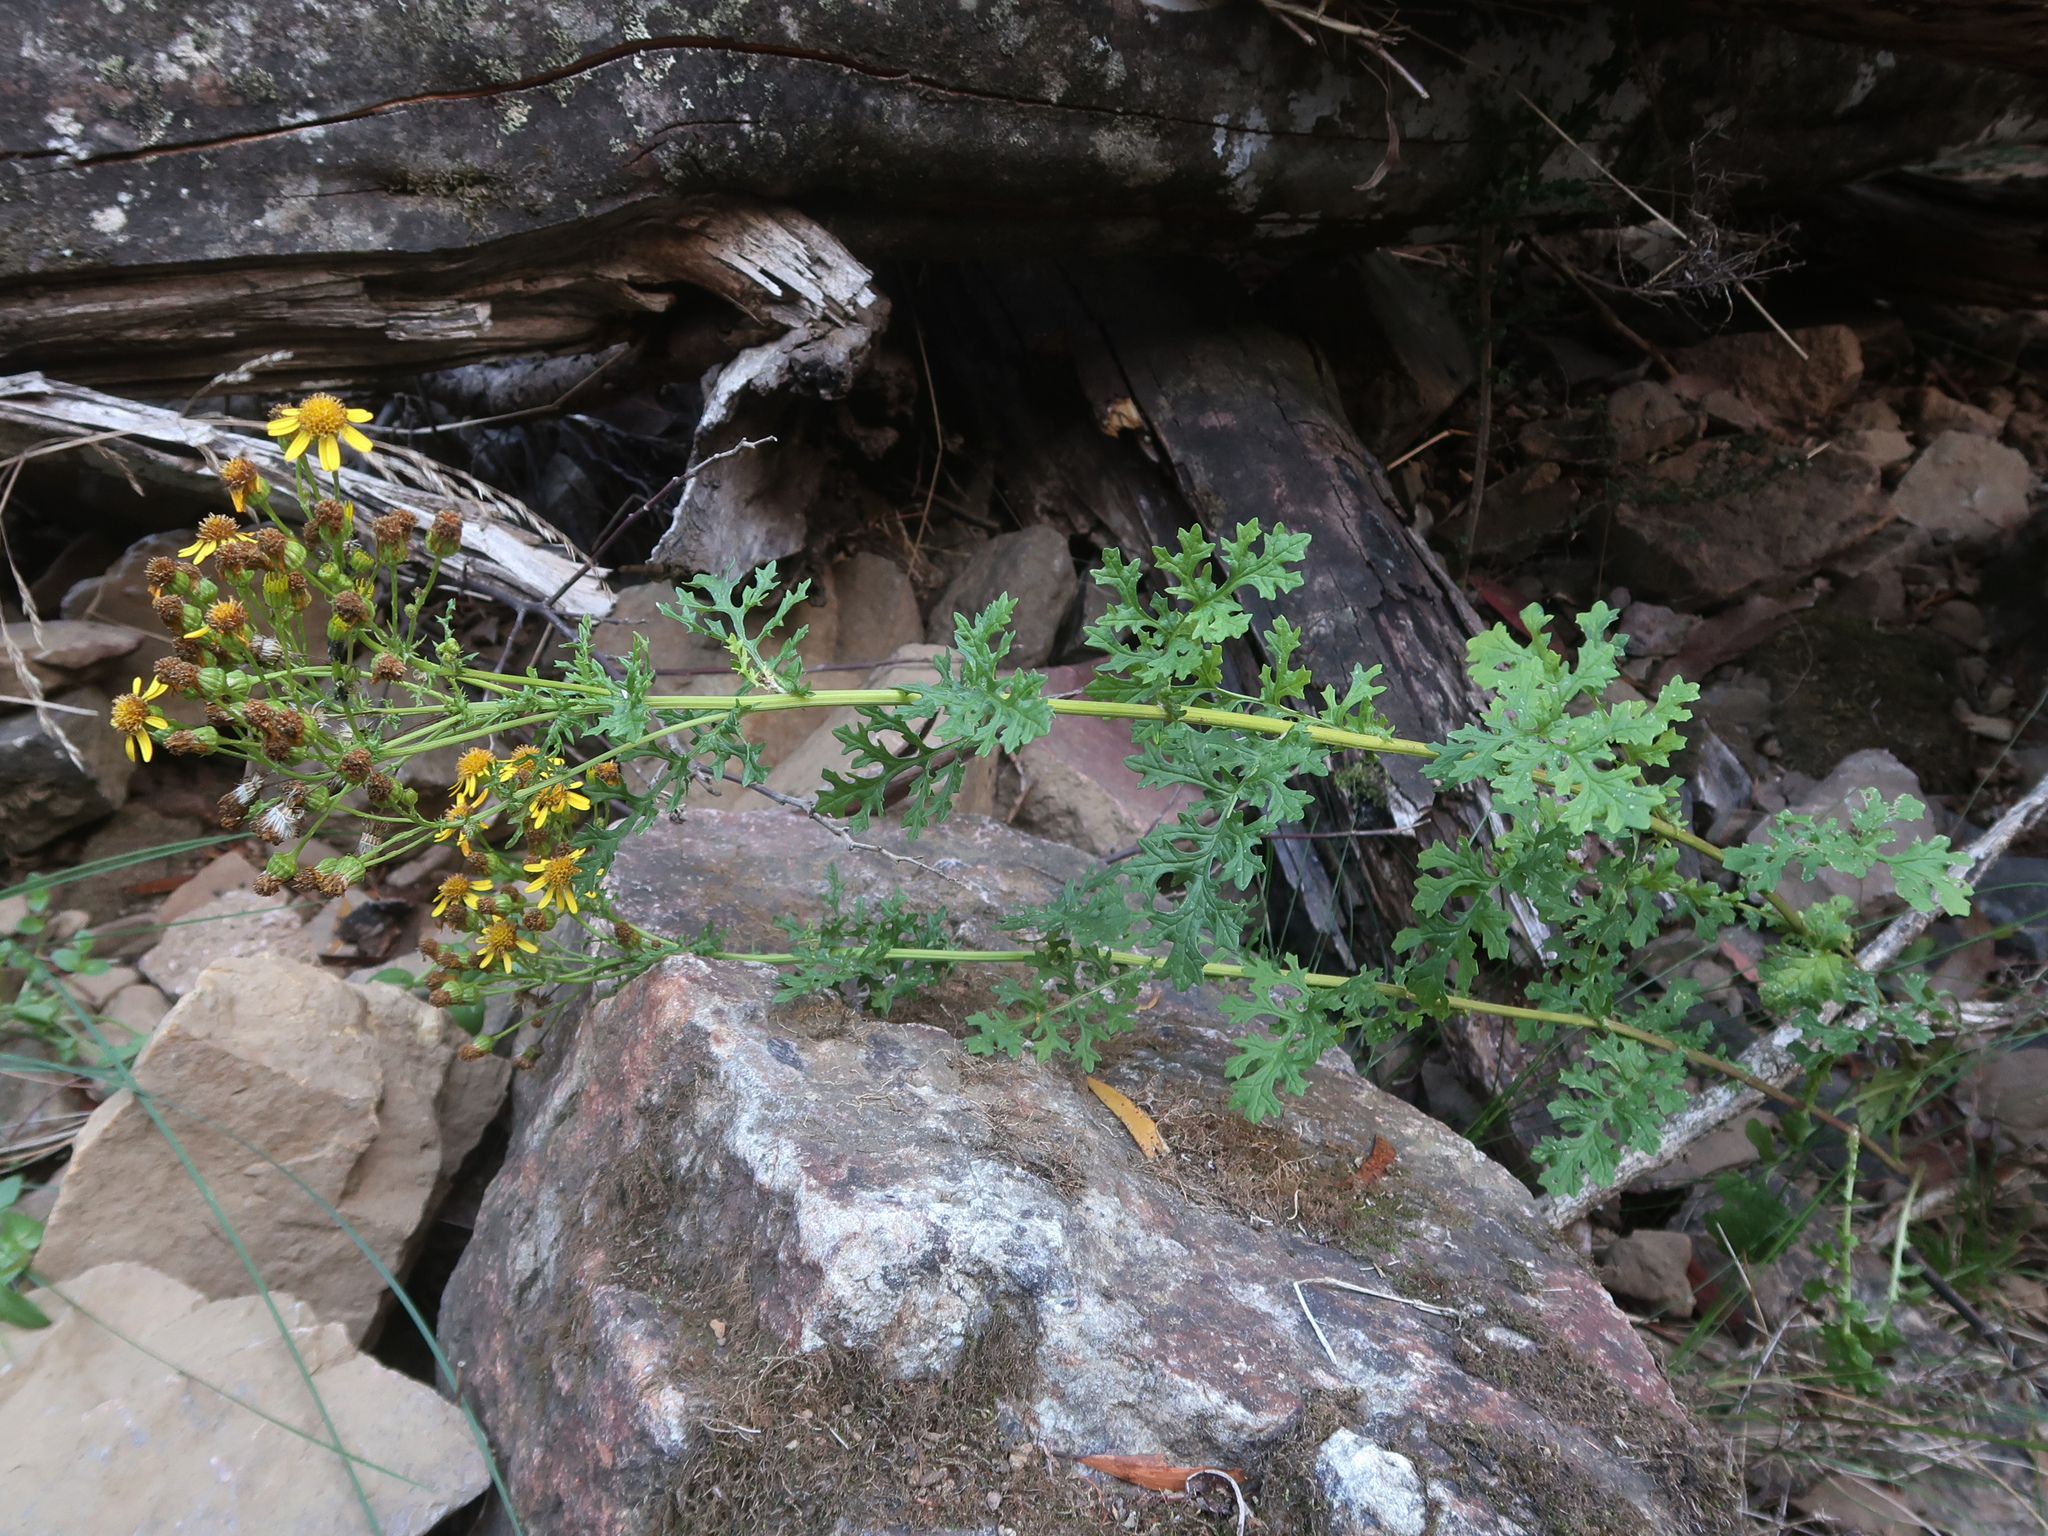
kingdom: Plantae
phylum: Tracheophyta
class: Magnoliopsida
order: Asterales
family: Asteraceae
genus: Jacobaea
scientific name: Jacobaea vulgaris
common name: Stinking willie
